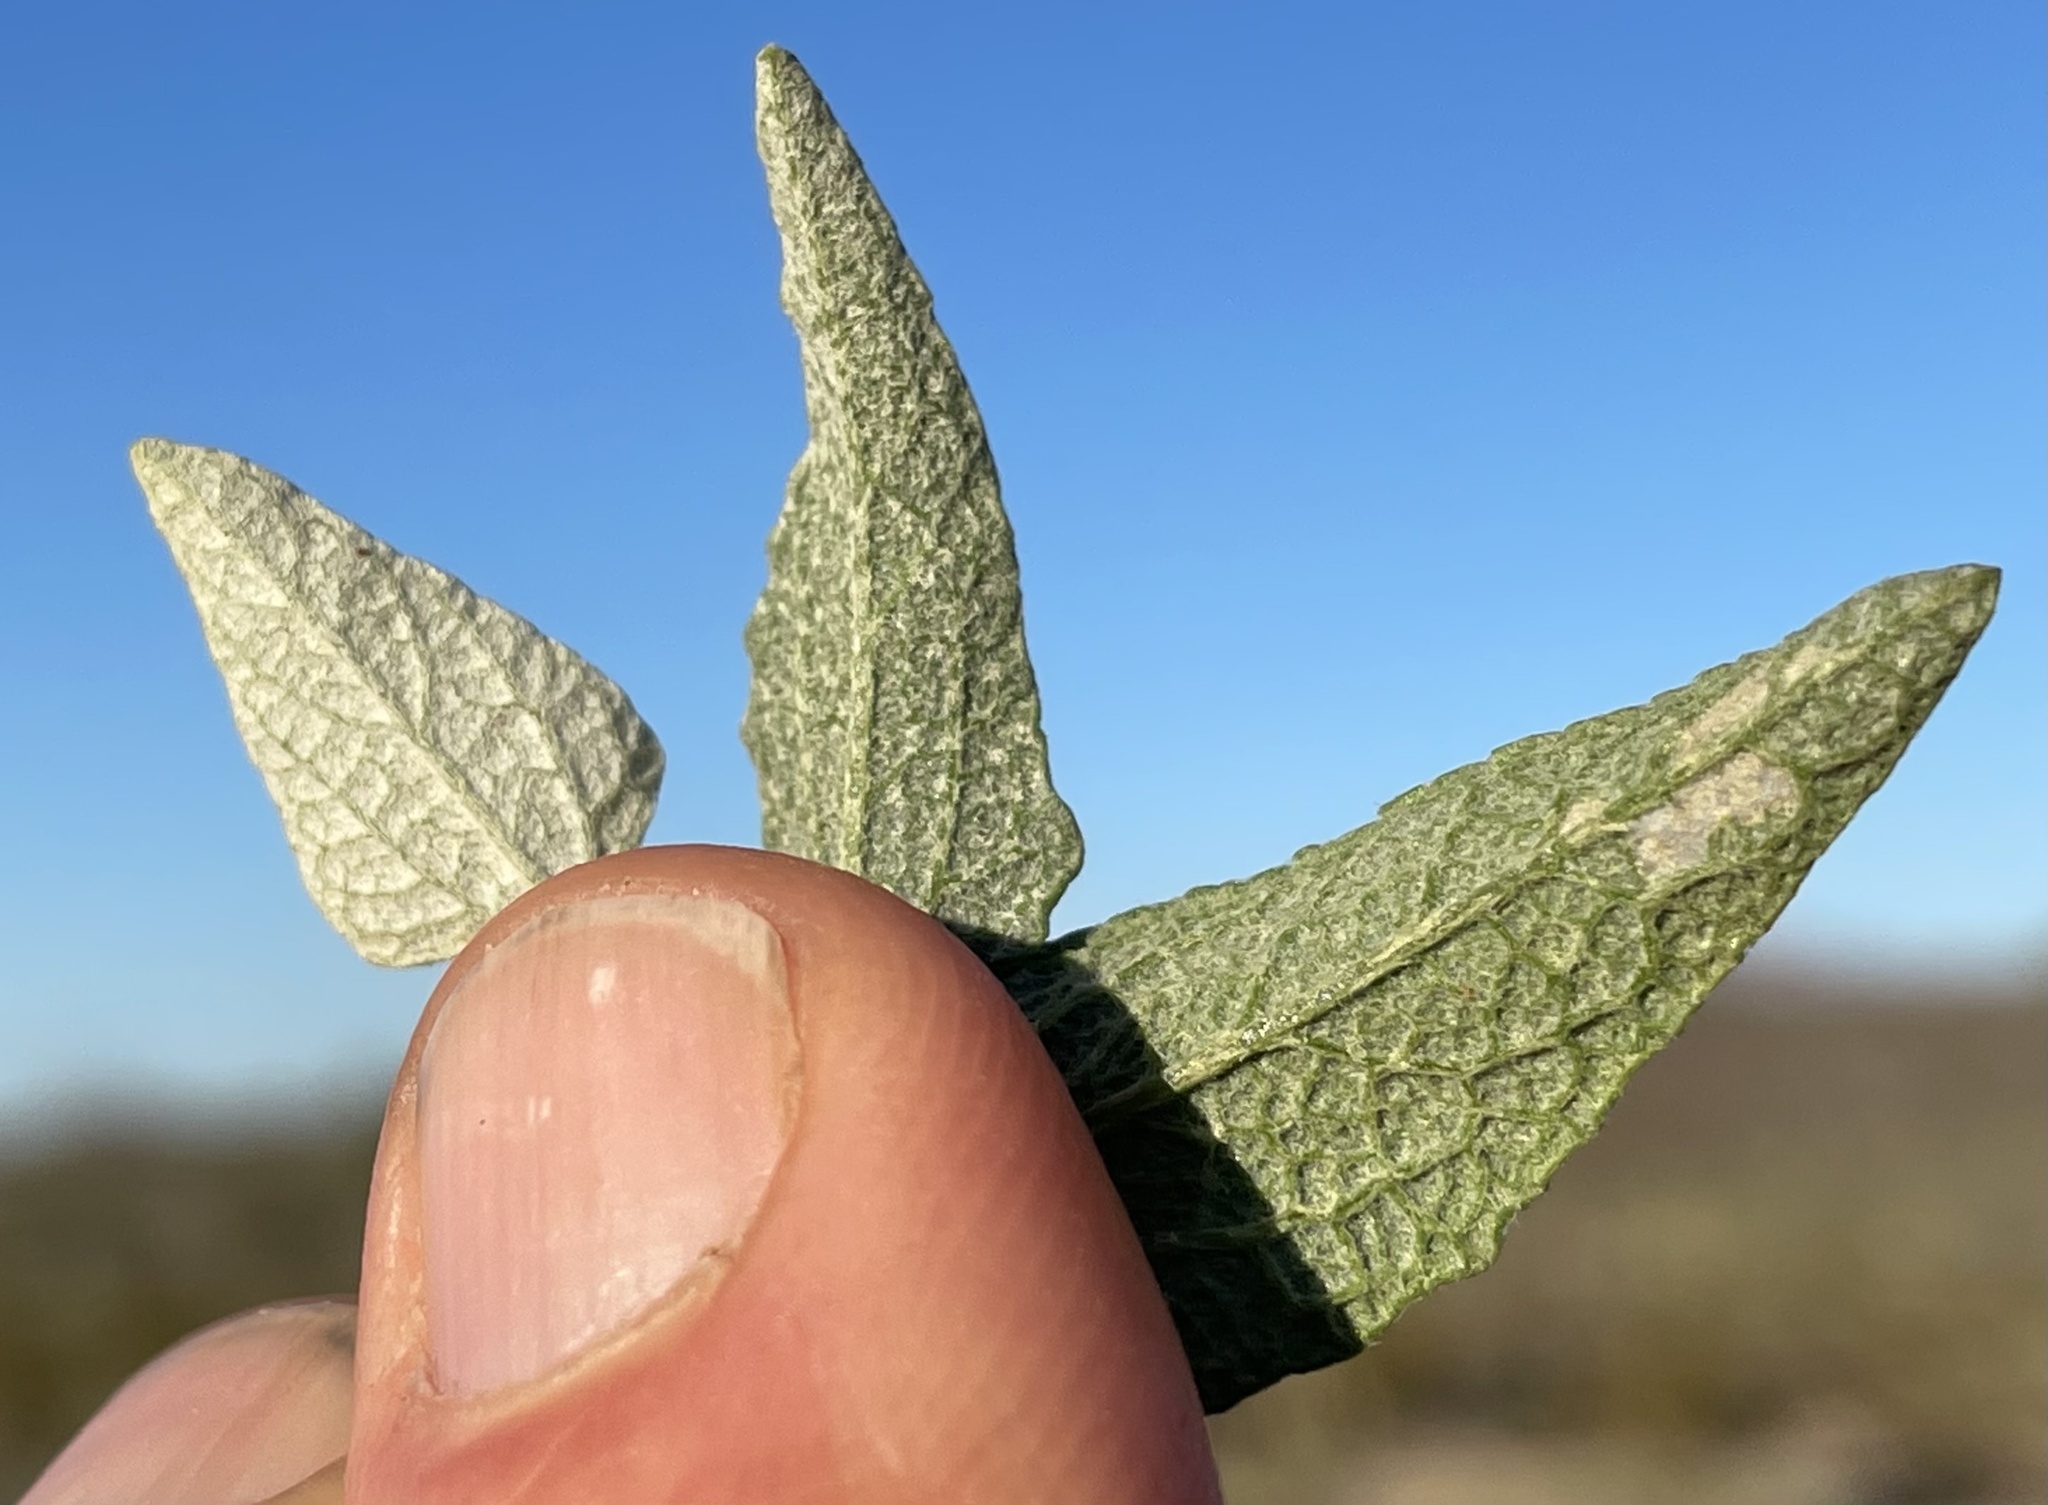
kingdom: Plantae
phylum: Tracheophyta
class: Magnoliopsida
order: Asterales
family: Asteraceae
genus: Ambrosia
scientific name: Ambrosia deltoidea
